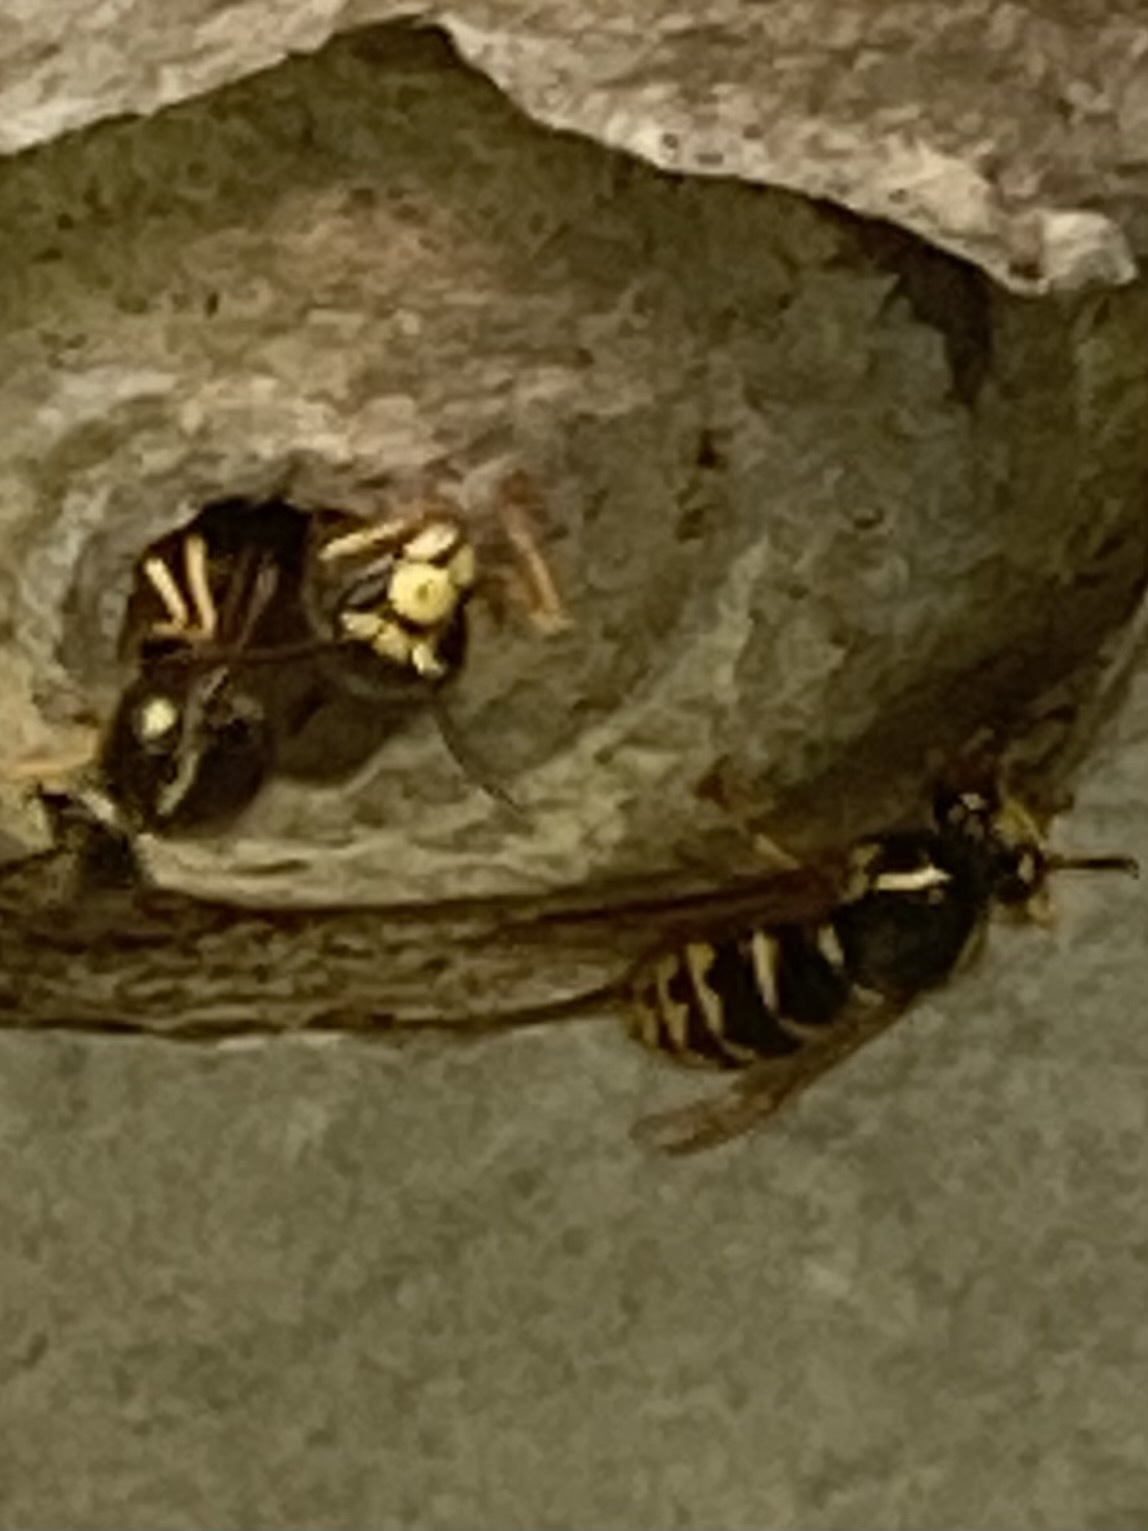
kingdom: Animalia
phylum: Arthropoda
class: Insecta
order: Hymenoptera
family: Vespidae
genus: Dolichovespula
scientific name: Dolichovespula arenaria
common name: Aerial yellowjacket
